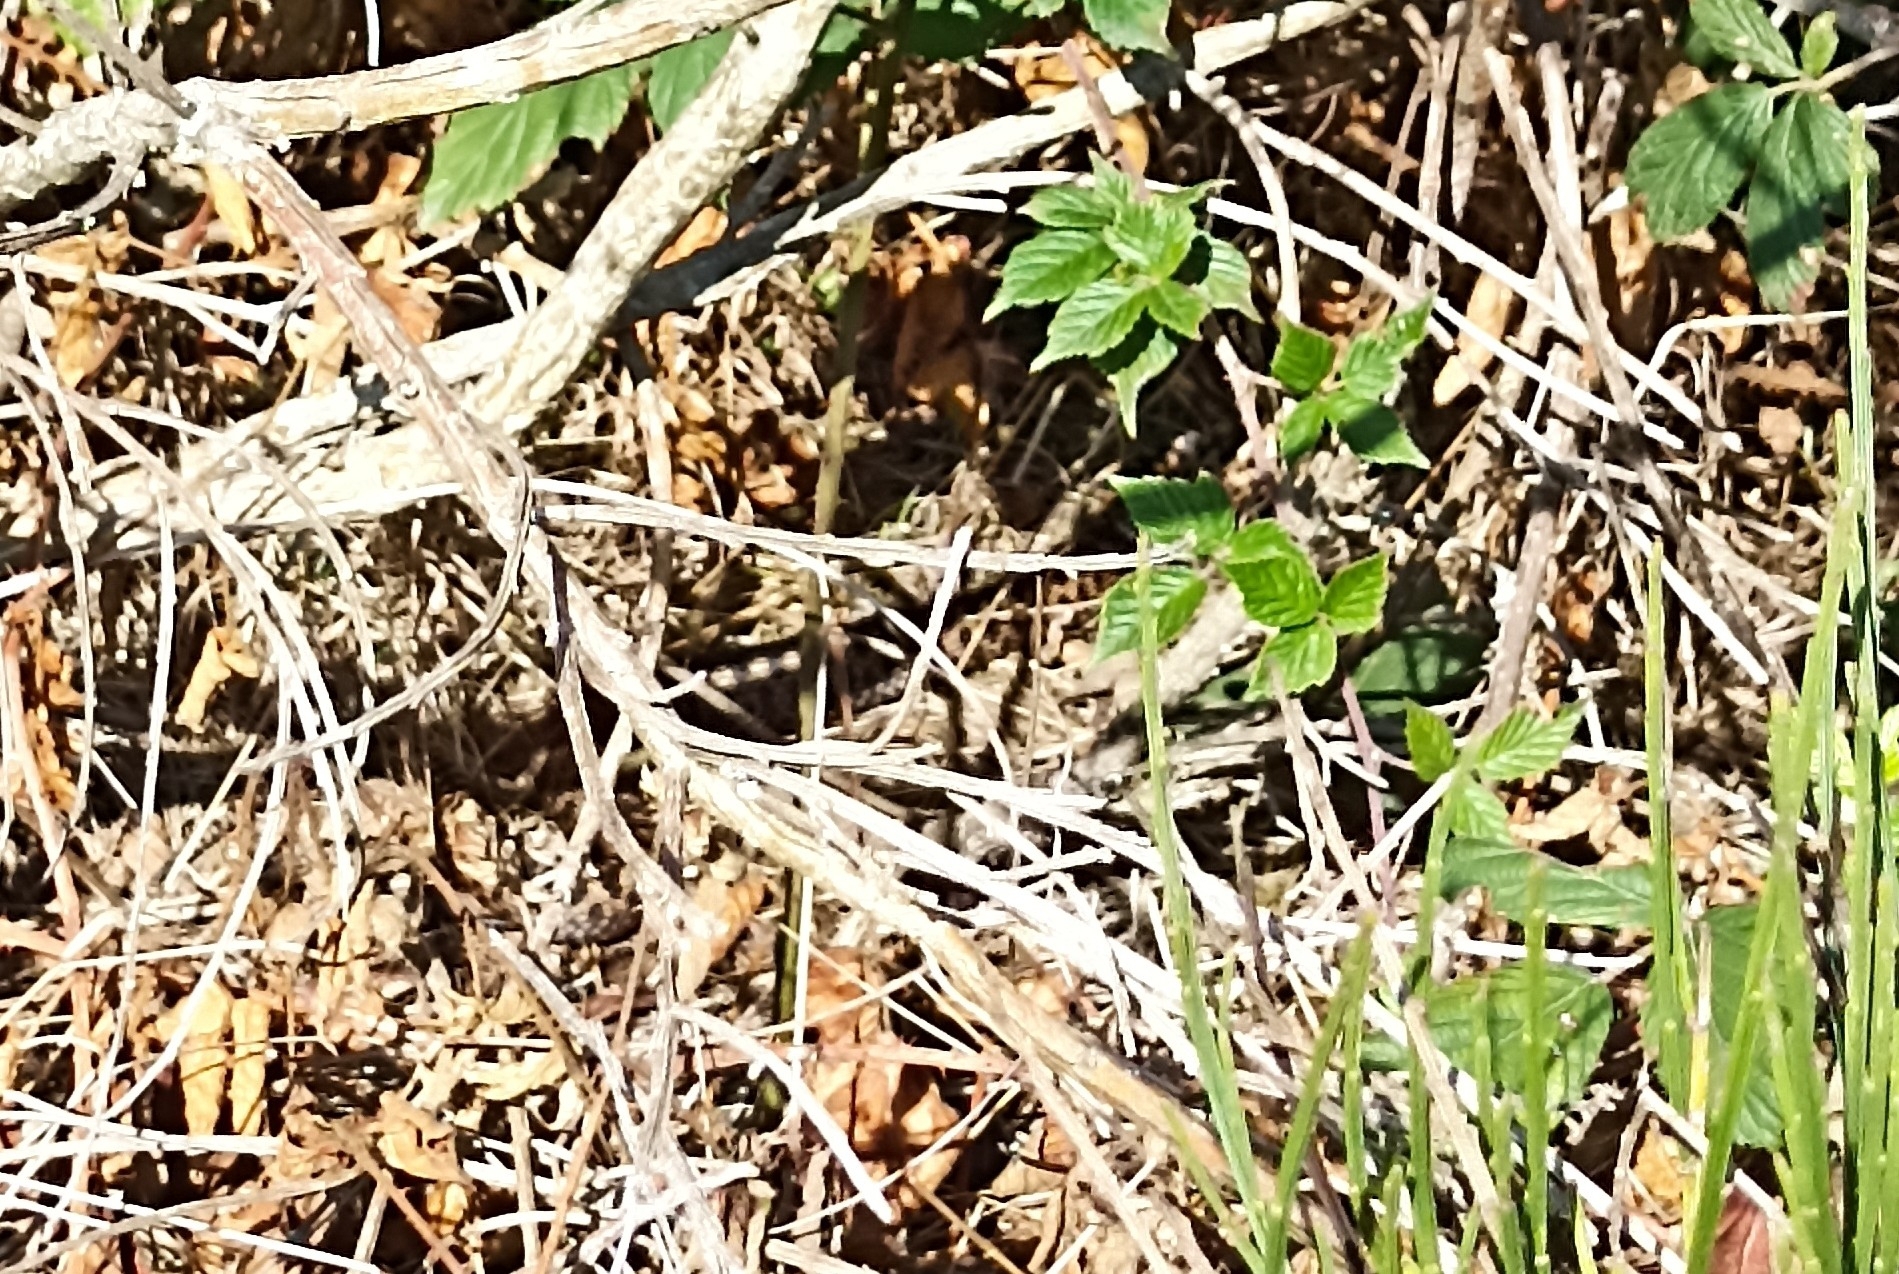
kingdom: Animalia
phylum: Chordata
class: Squamata
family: Viperidae
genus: Vipera
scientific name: Vipera berus
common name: Adder
